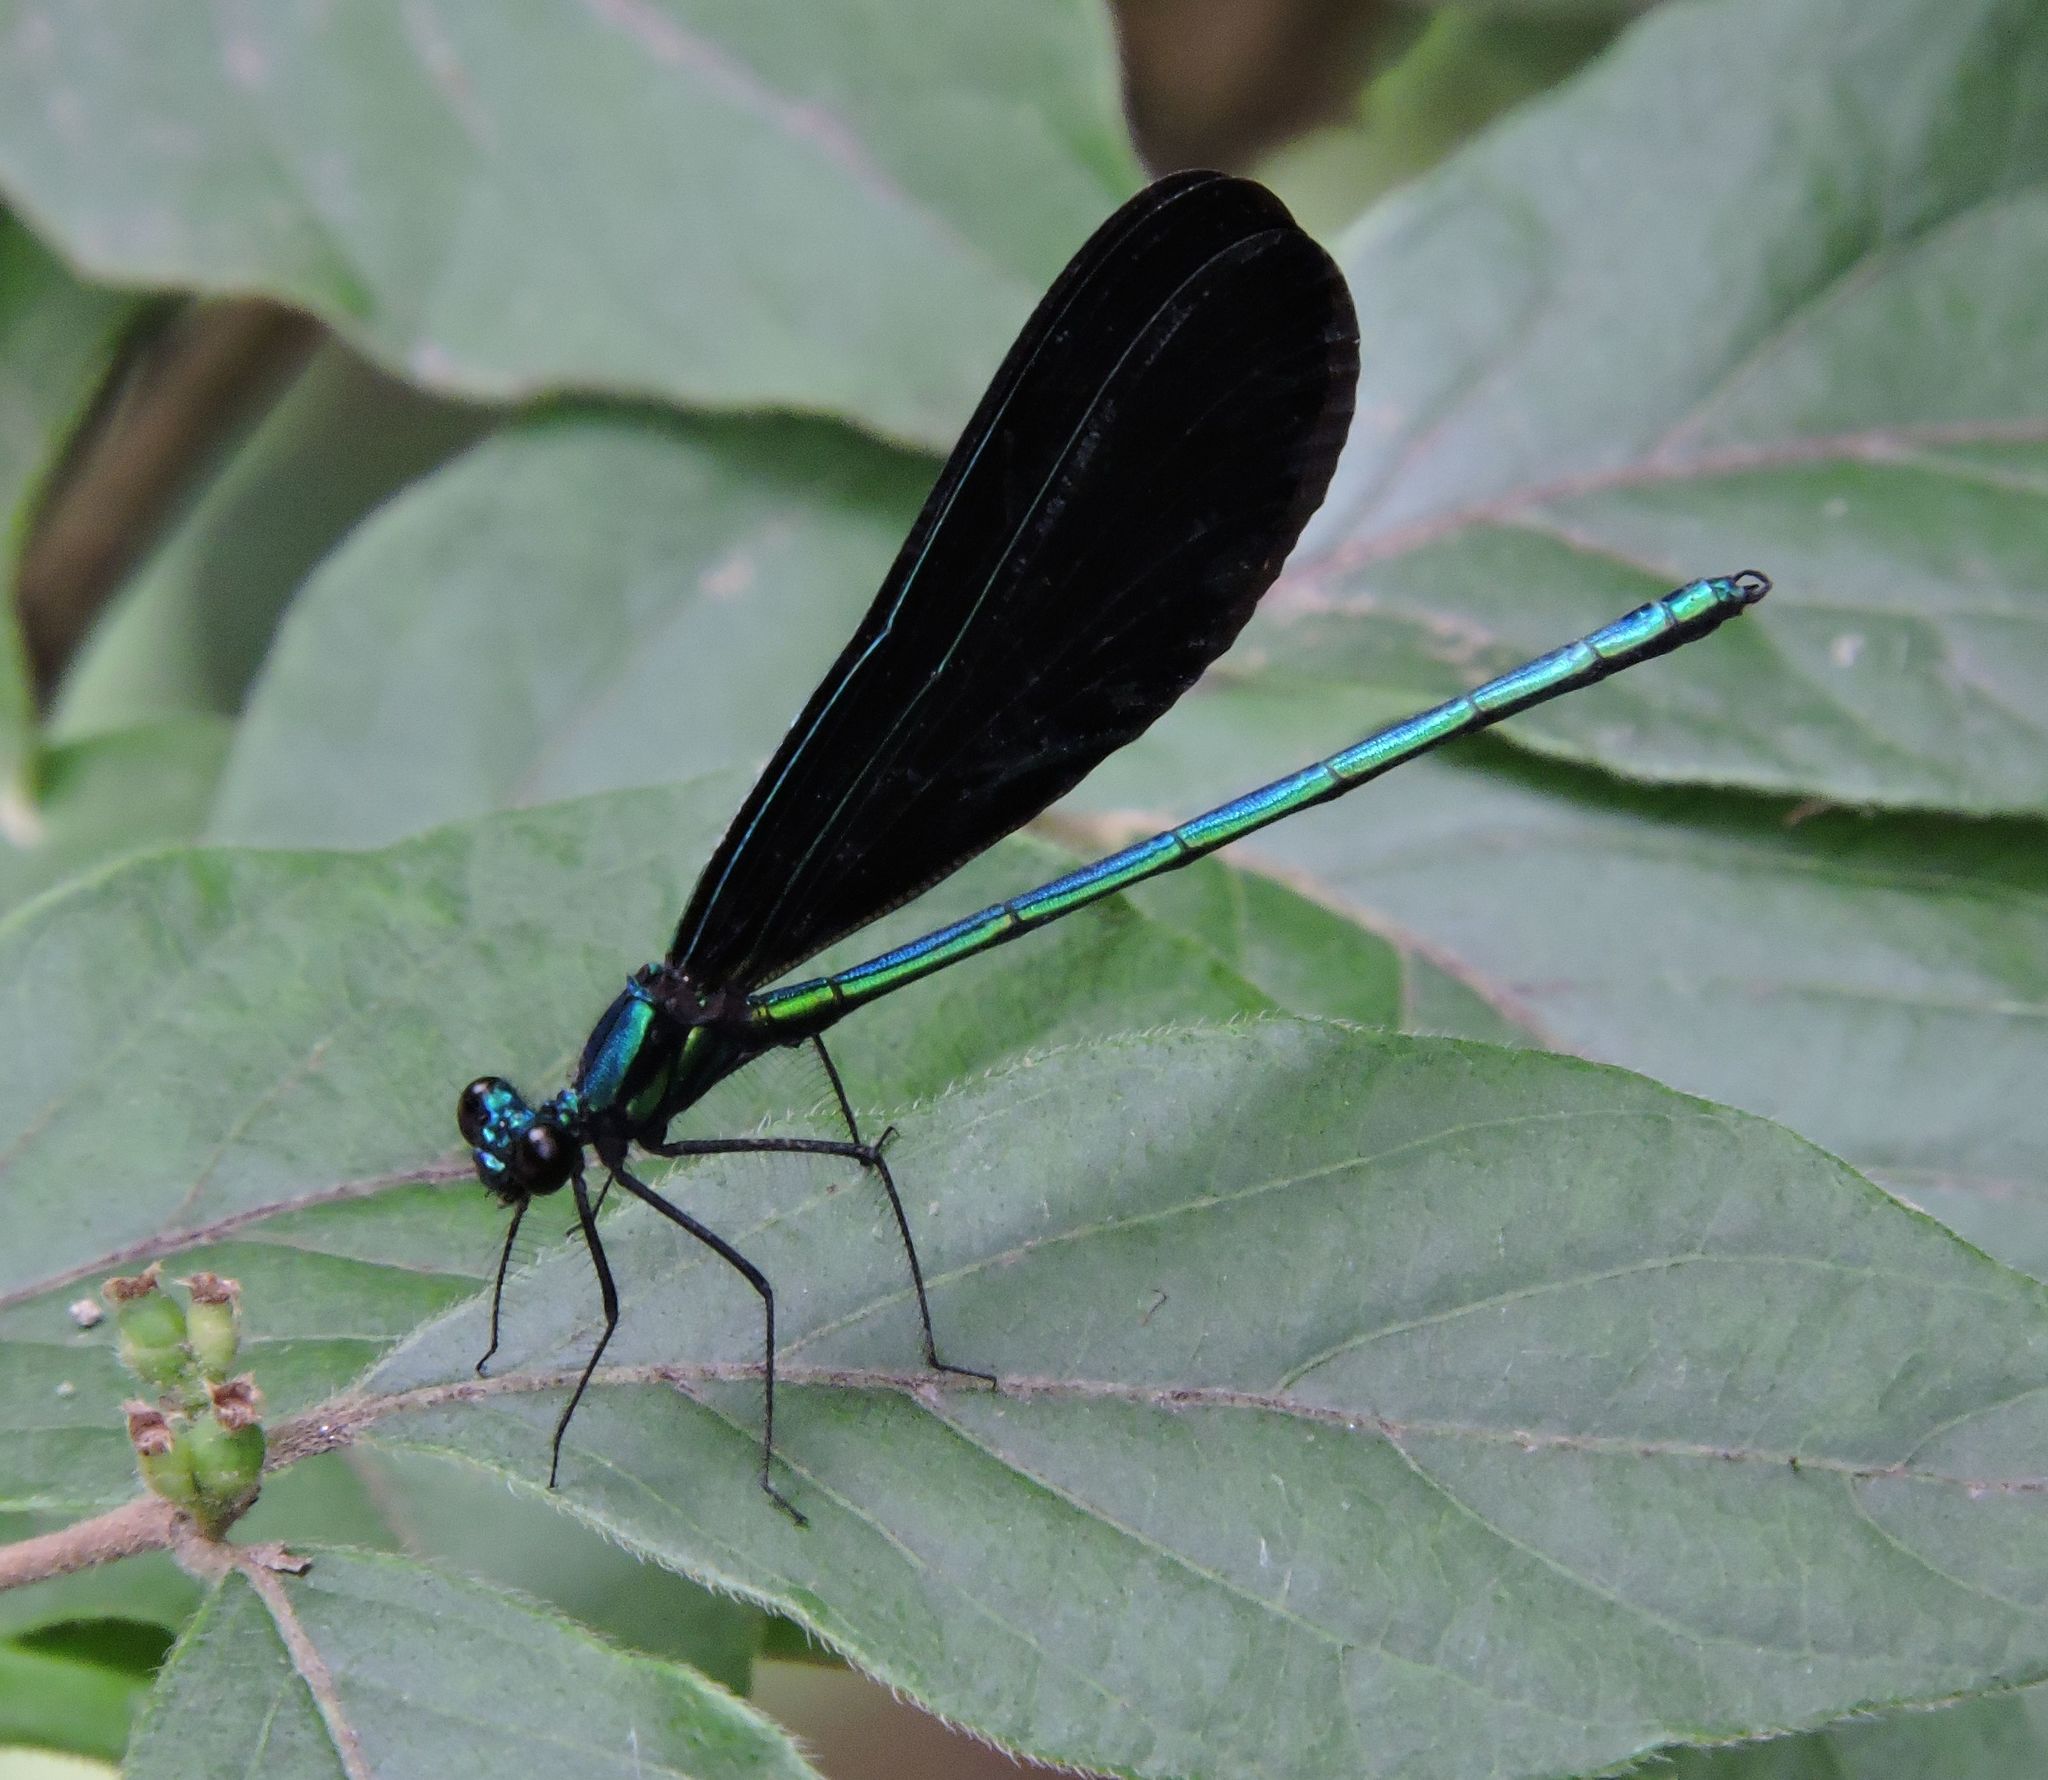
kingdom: Animalia
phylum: Arthropoda
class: Insecta
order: Odonata
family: Calopterygidae
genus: Calopteryx
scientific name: Calopteryx maculata
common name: Ebony jewelwing
